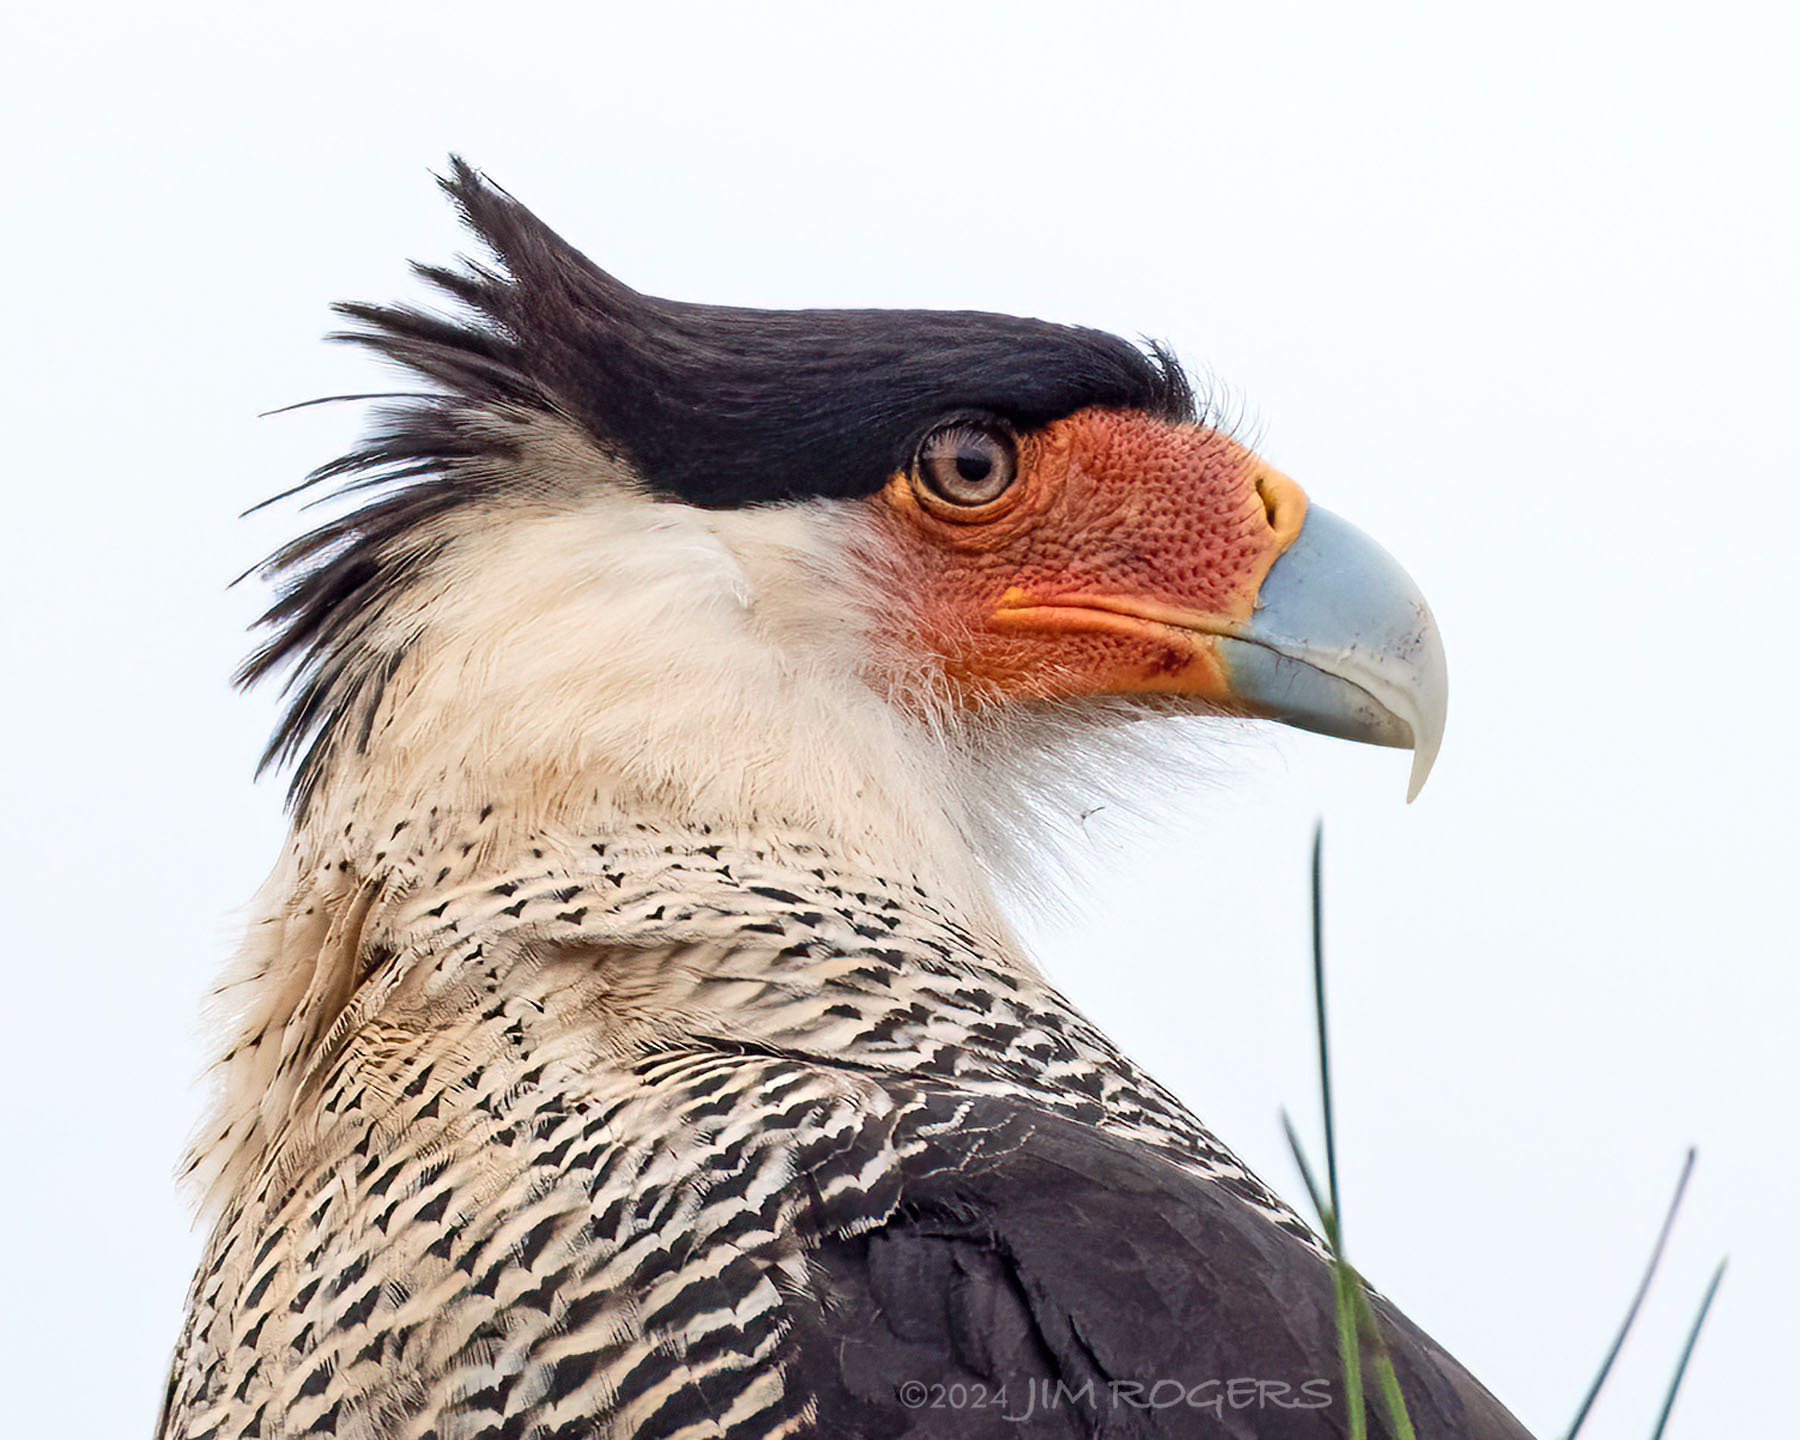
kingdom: Animalia
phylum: Chordata
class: Aves
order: Falconiformes
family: Falconidae
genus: Caracara
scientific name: Caracara plancus
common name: Southern caracara
